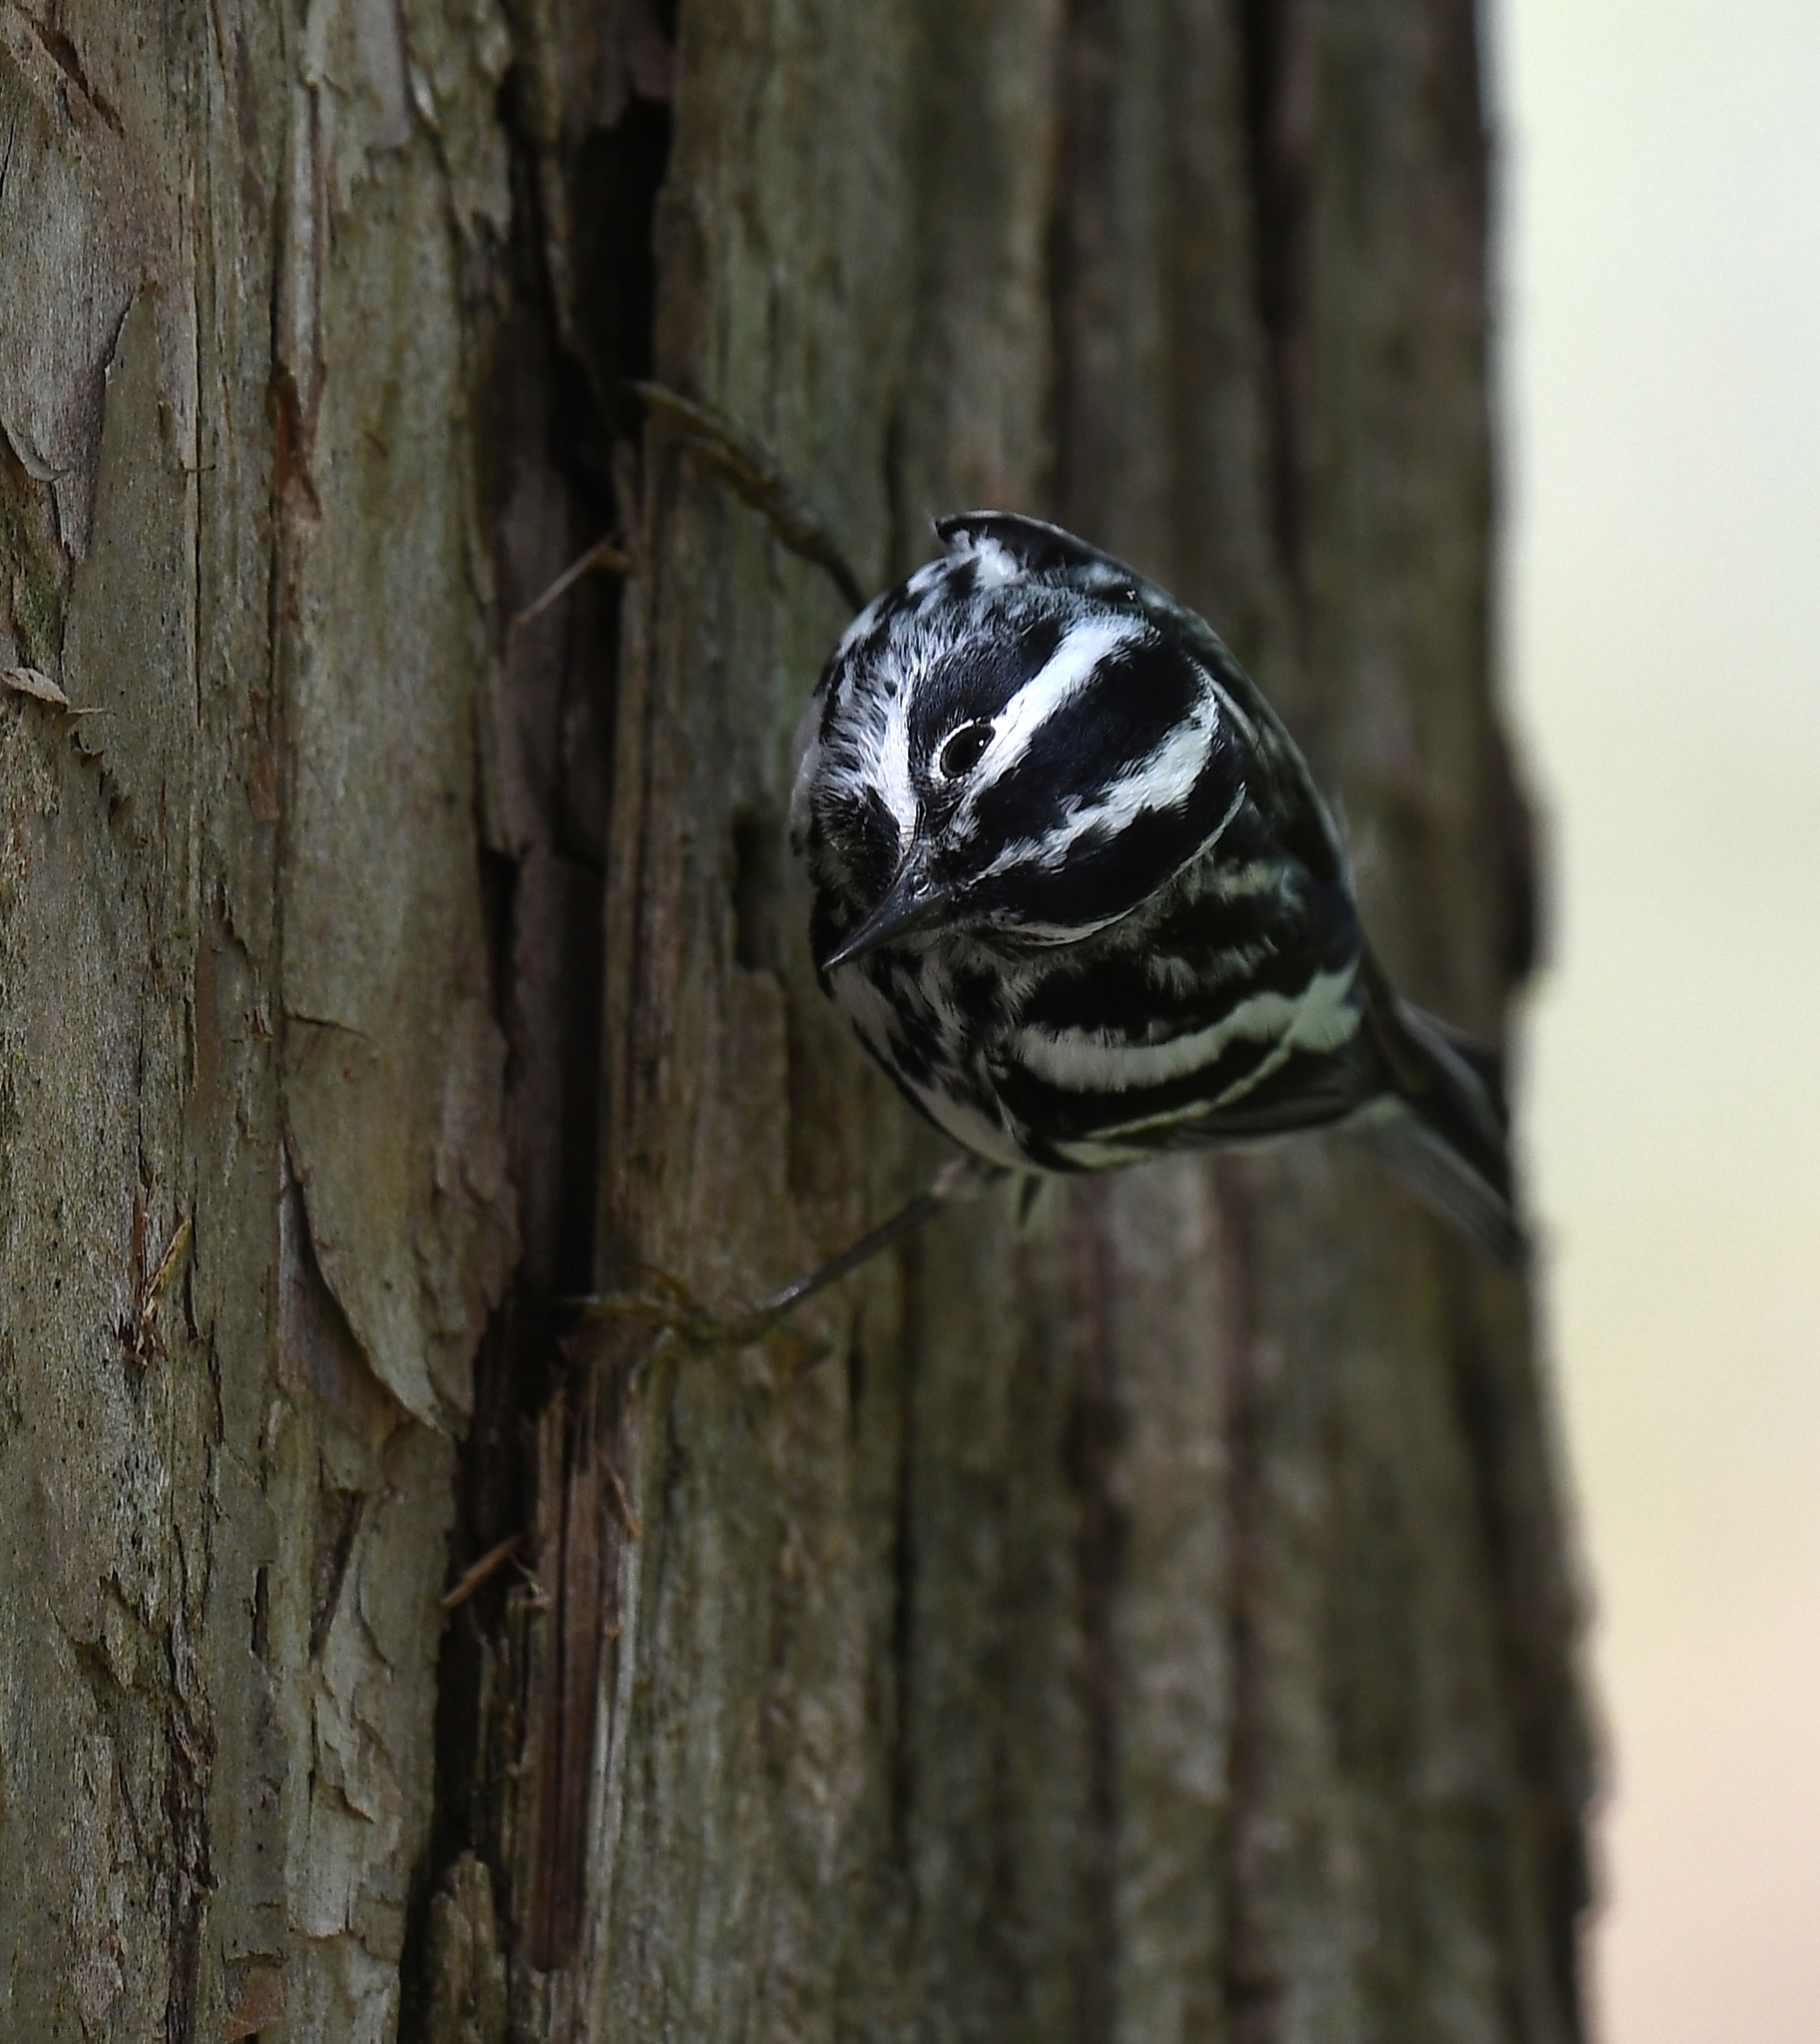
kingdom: Animalia
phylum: Chordata
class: Aves
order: Passeriformes
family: Parulidae
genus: Mniotilta
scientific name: Mniotilta varia
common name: Black-and-white warbler
